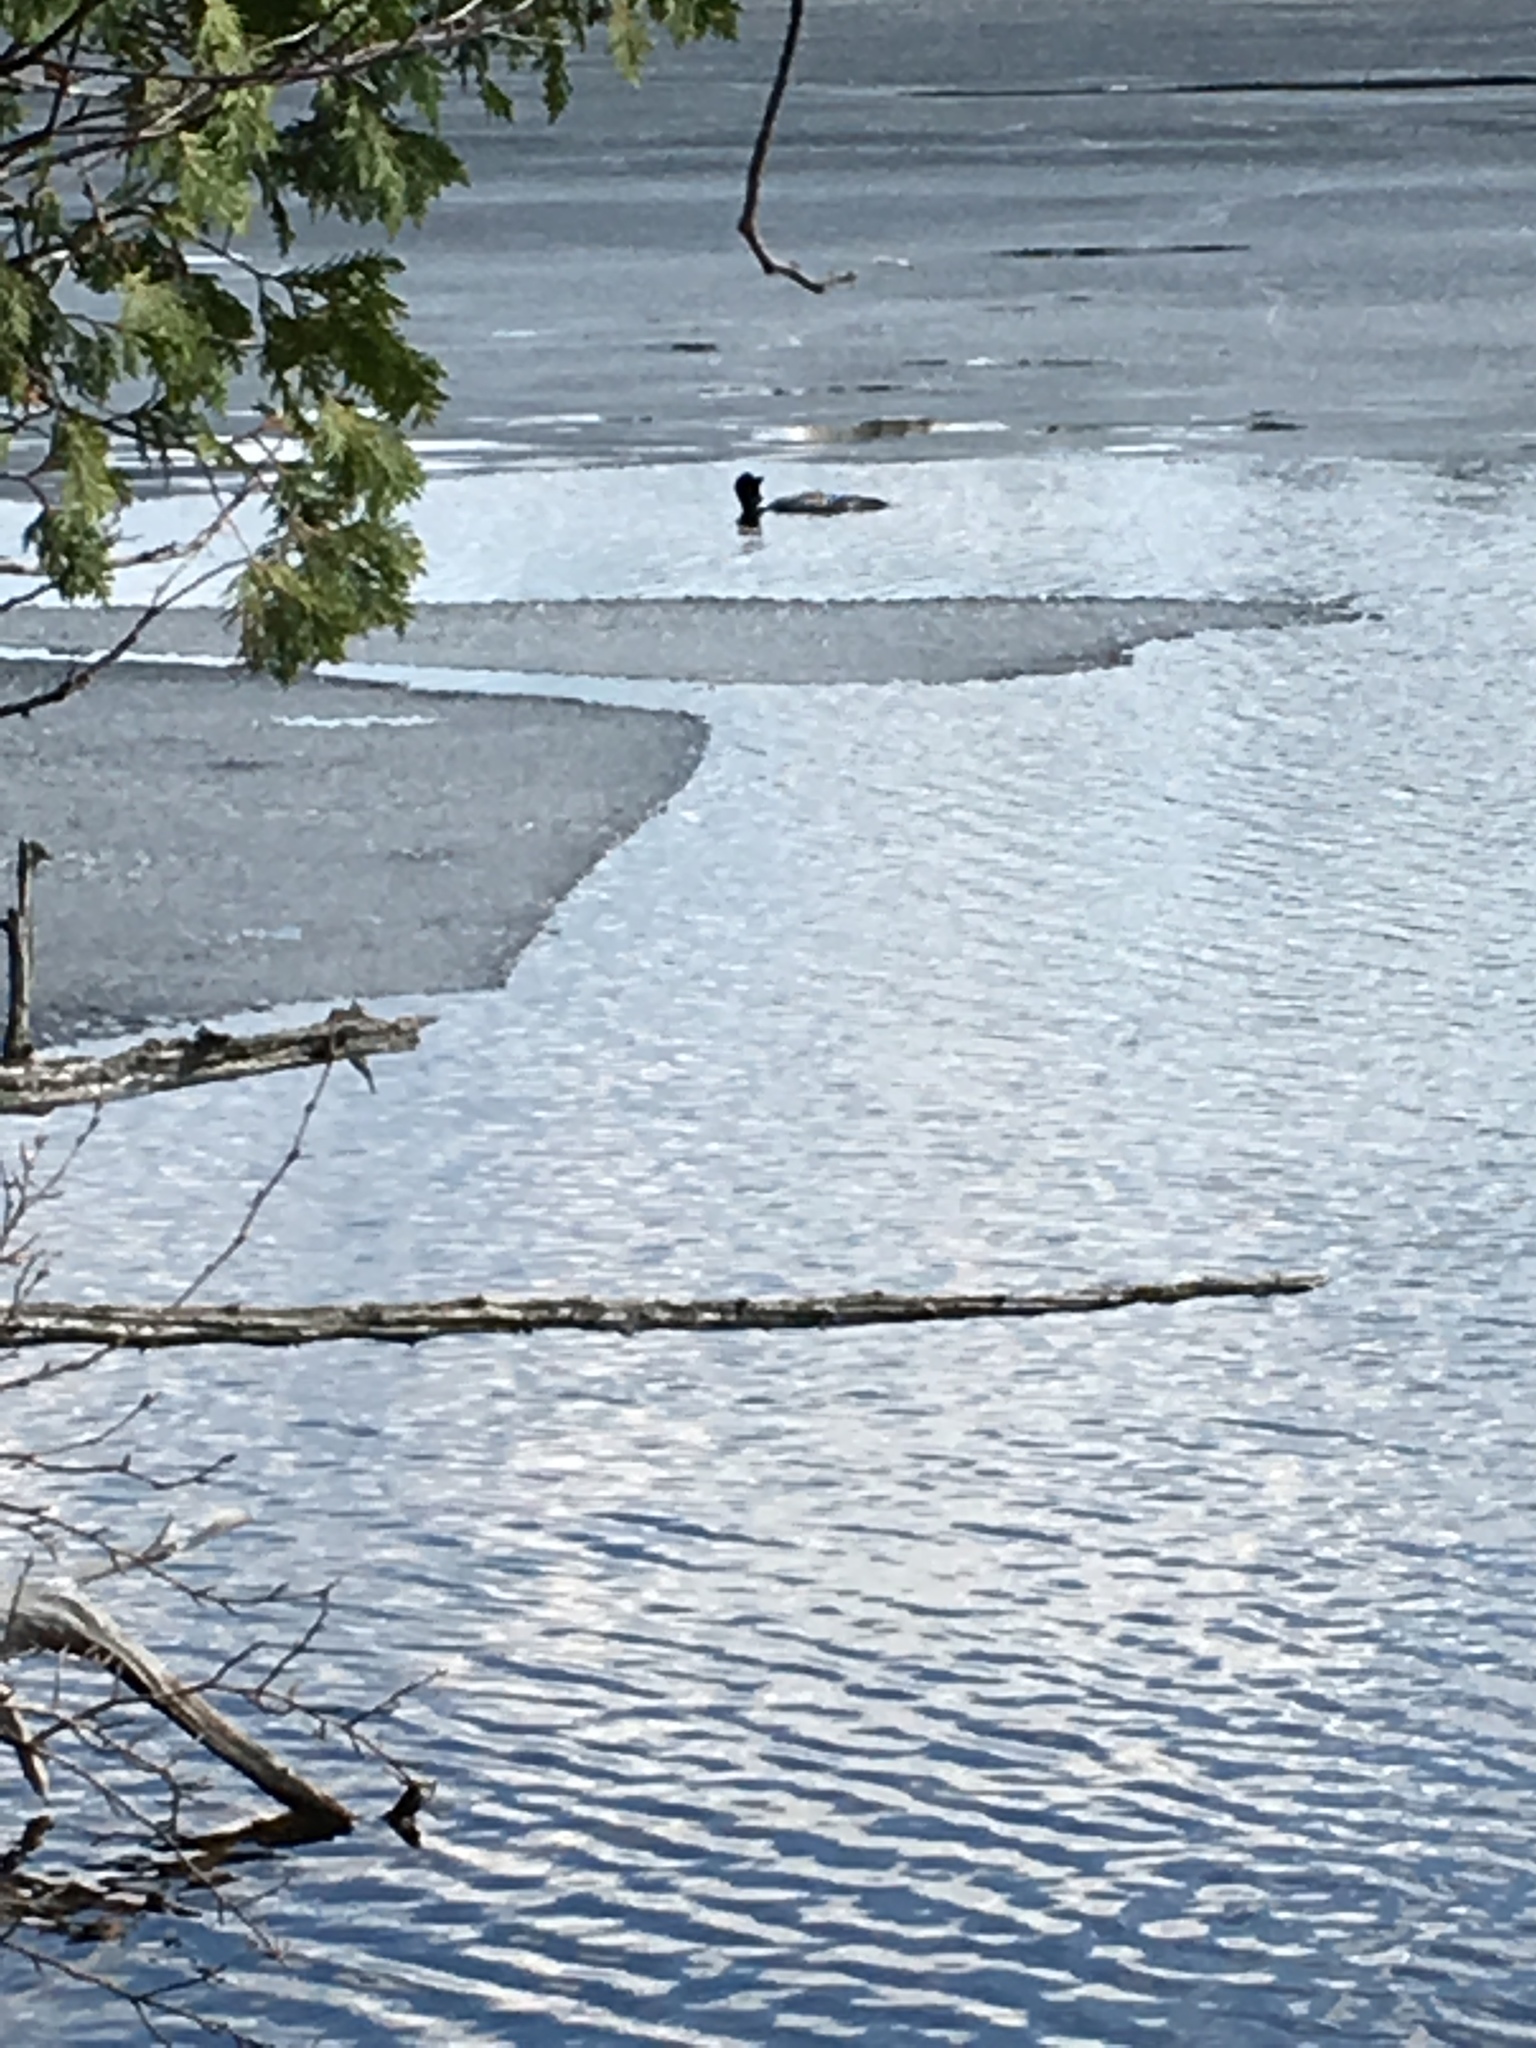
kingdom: Animalia
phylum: Chordata
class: Aves
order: Gaviiformes
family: Gaviidae
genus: Gavia
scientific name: Gavia immer
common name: Common loon
